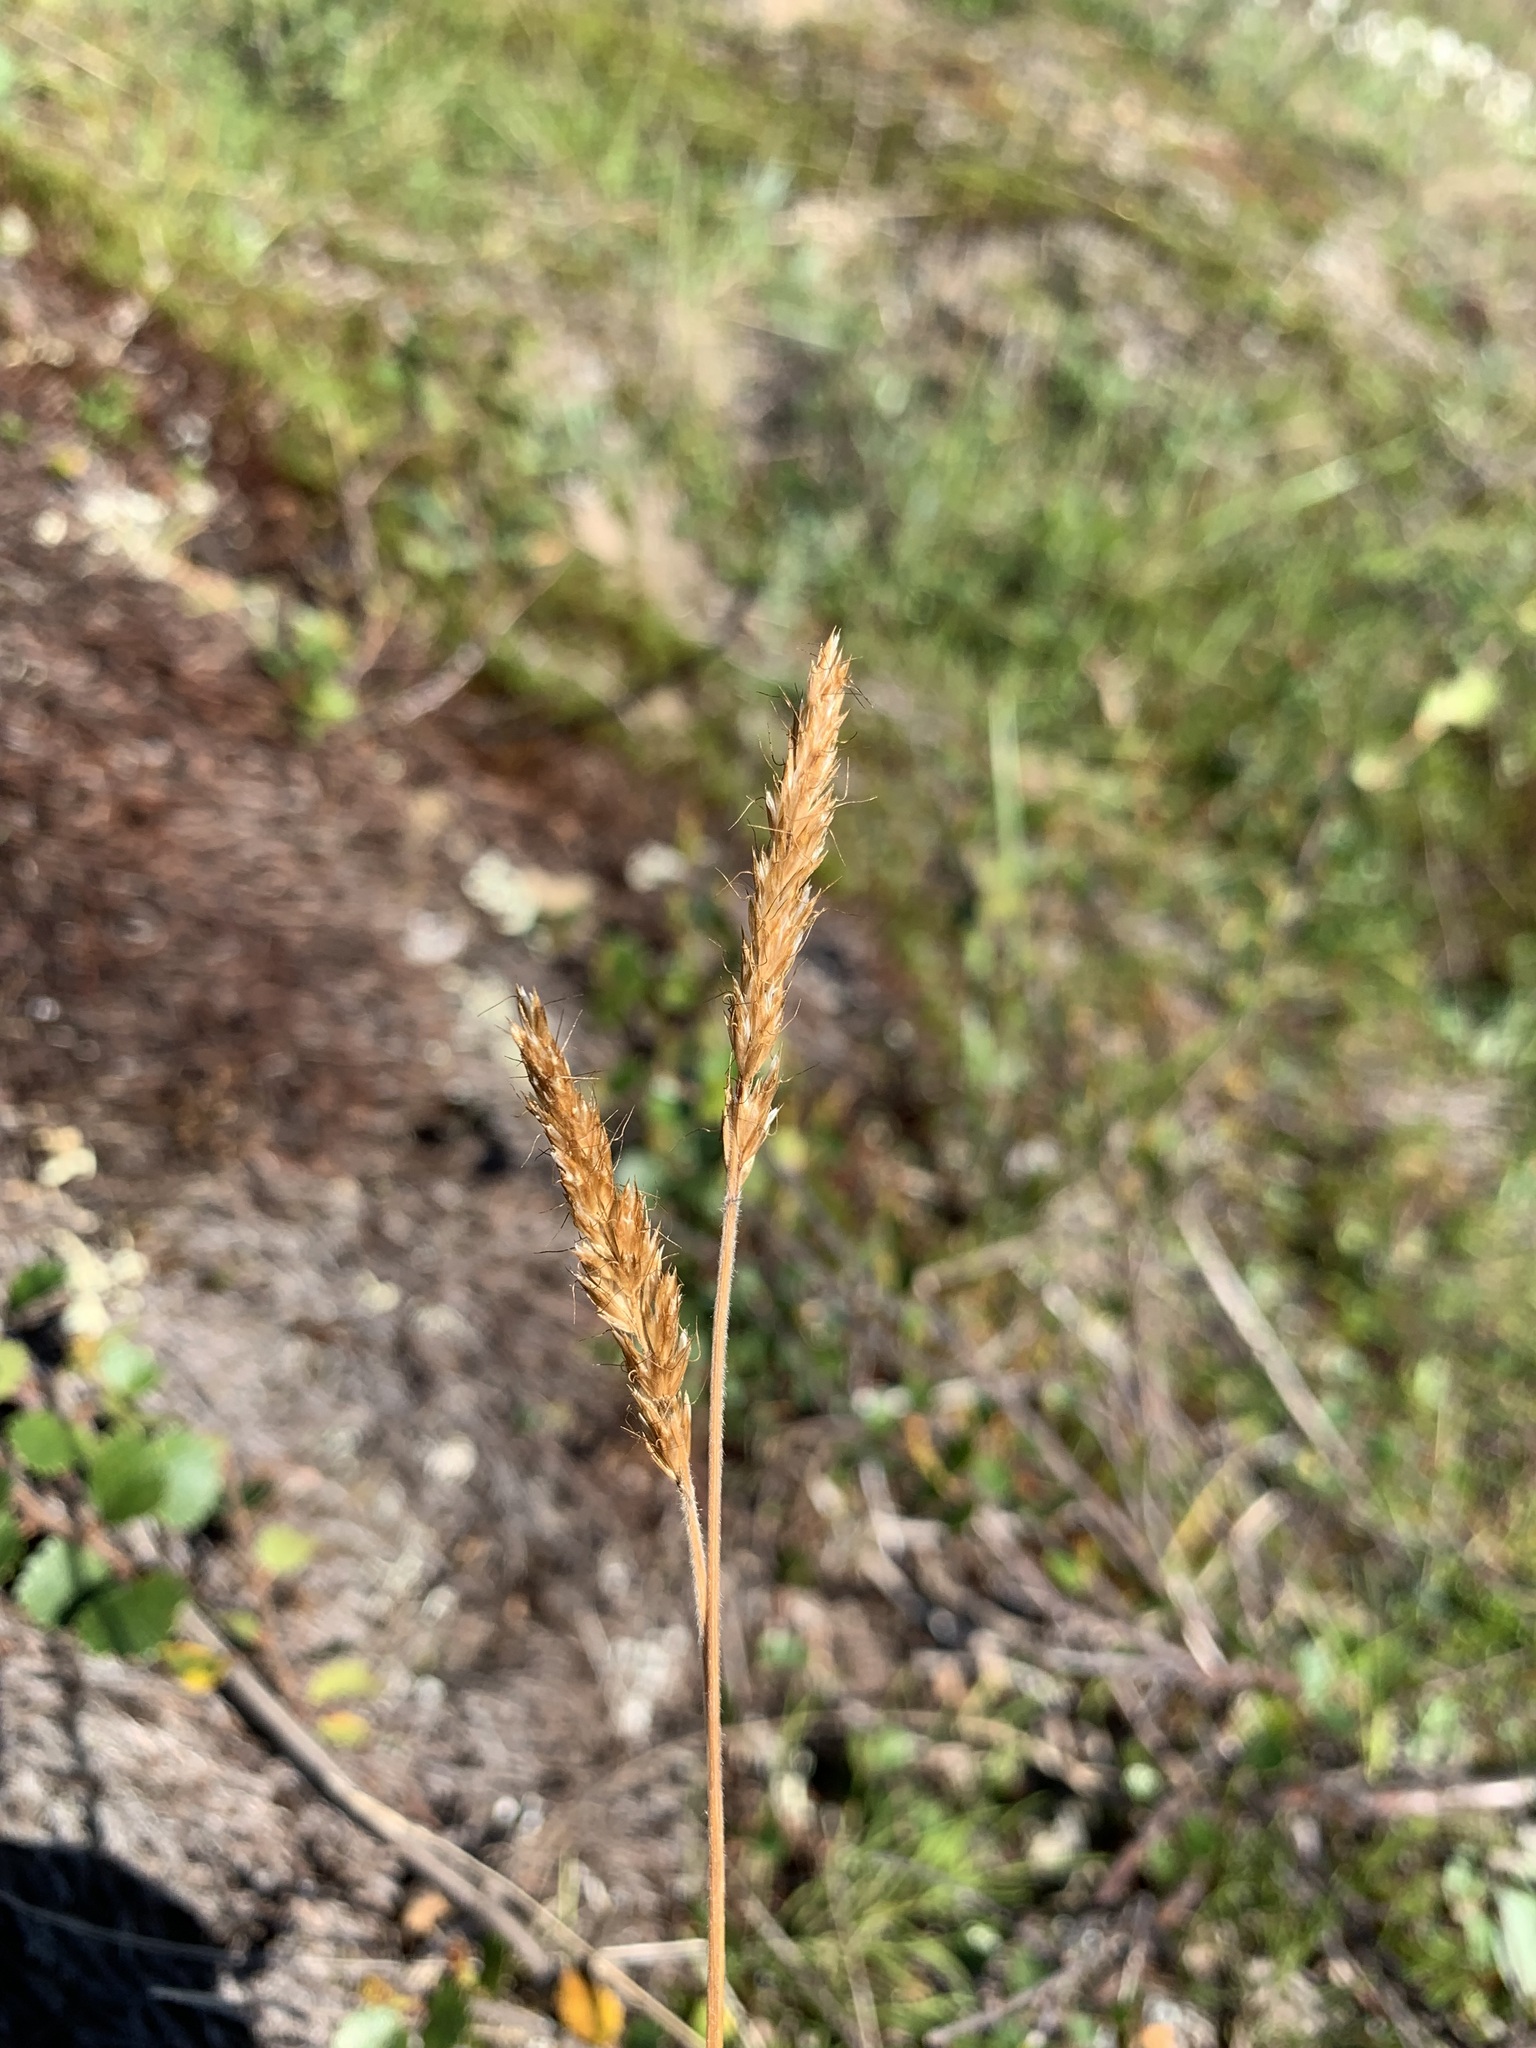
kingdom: Plantae
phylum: Tracheophyta
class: Liliopsida
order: Poales
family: Poaceae
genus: Koeleria
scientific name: Koeleria spicata
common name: Mountain trisetum
